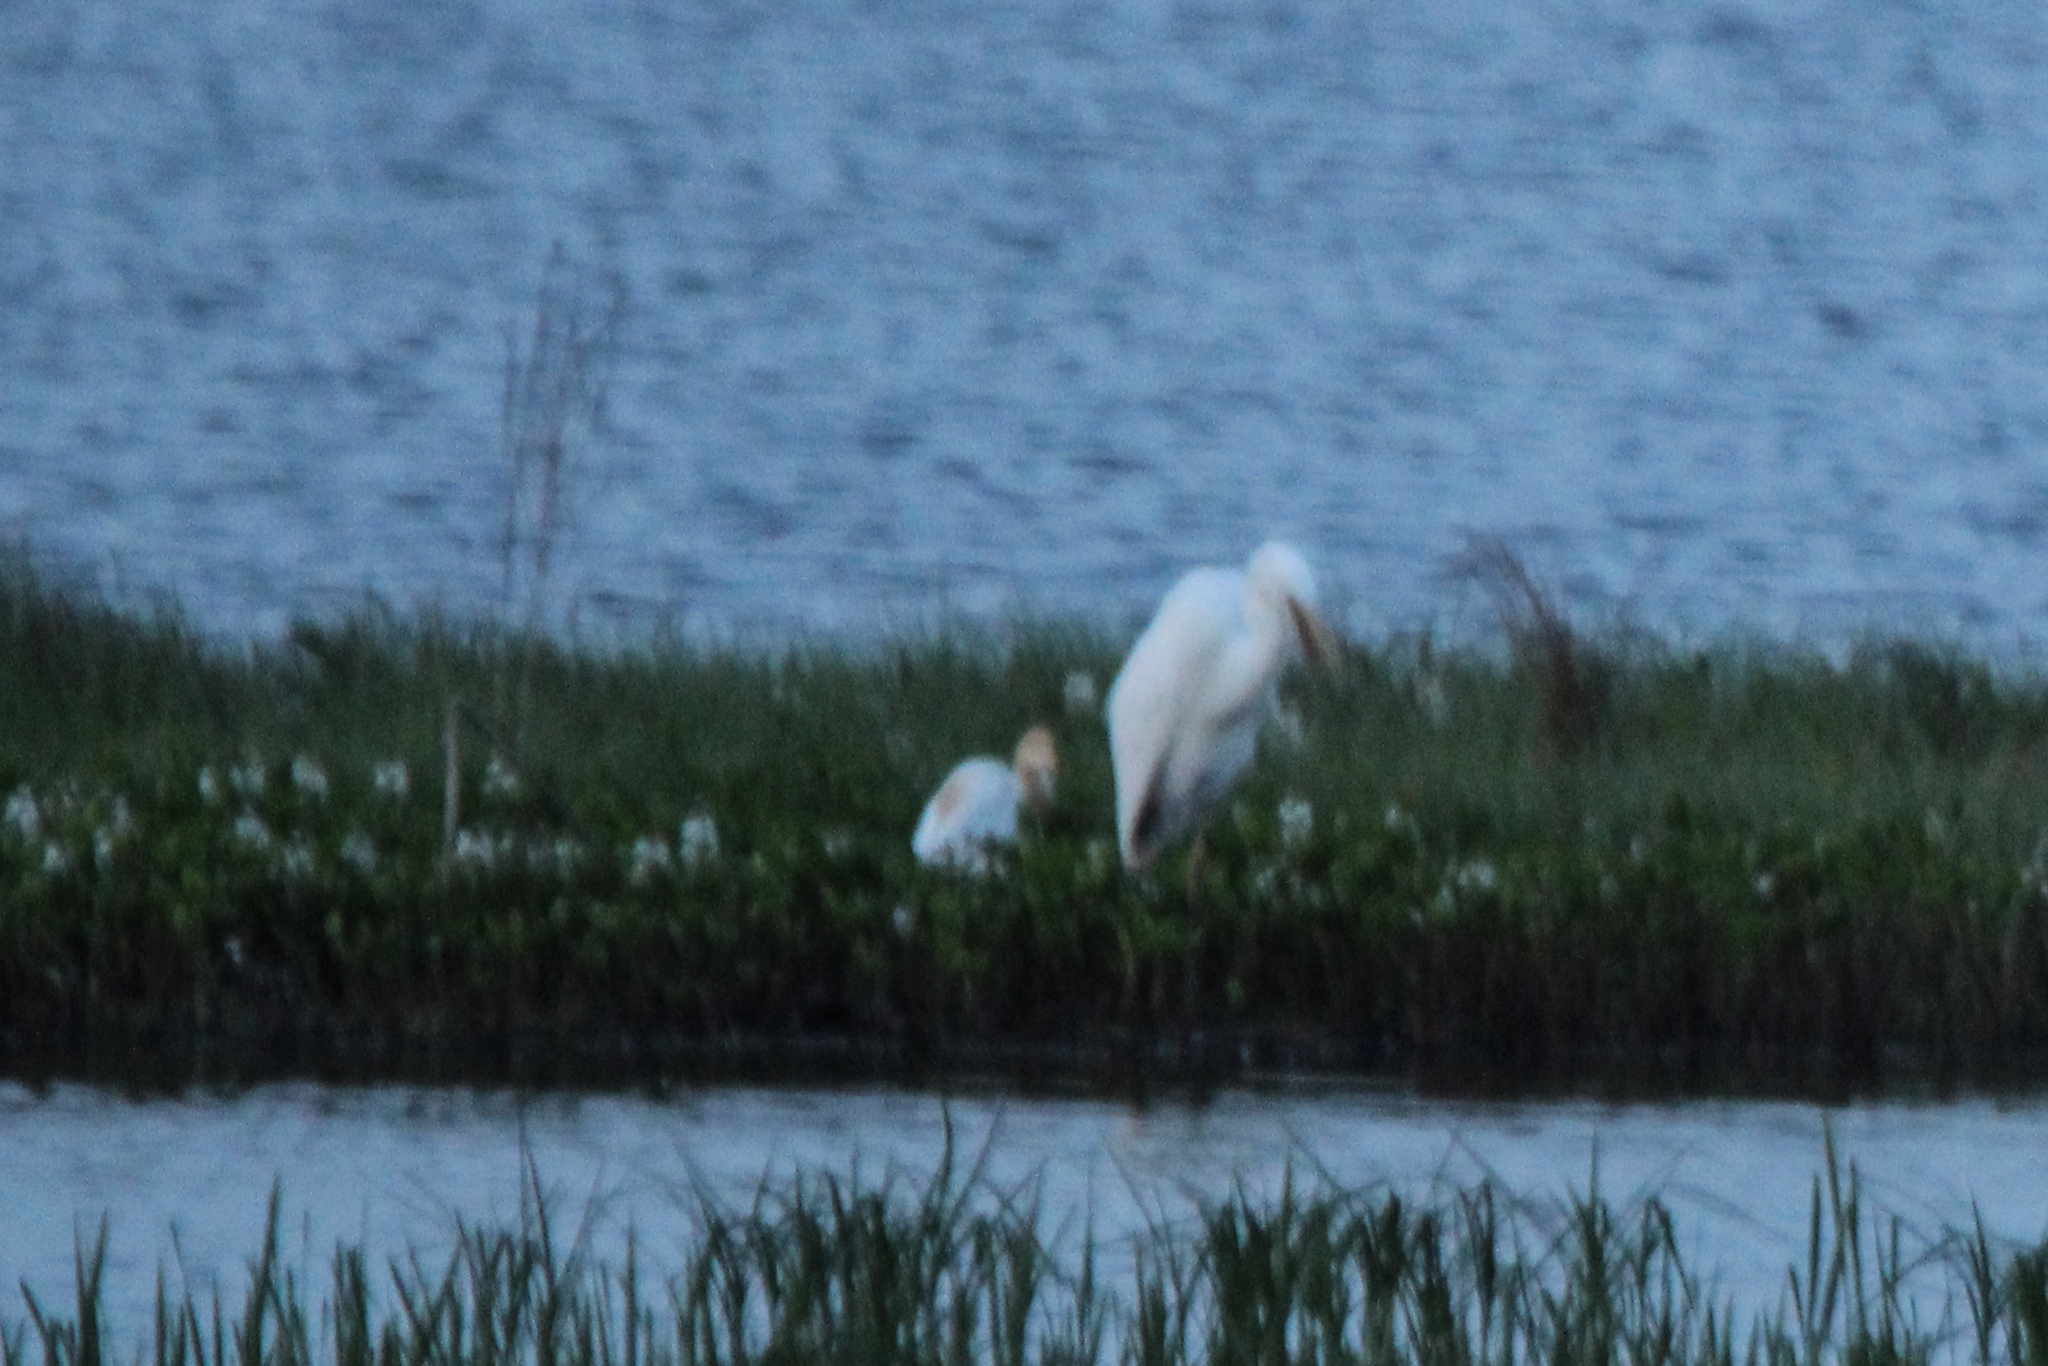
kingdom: Animalia
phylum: Chordata
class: Aves
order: Pelecaniformes
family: Ardeidae
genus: Bubulcus
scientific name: Bubulcus coromandus
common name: Eastern cattle egret
